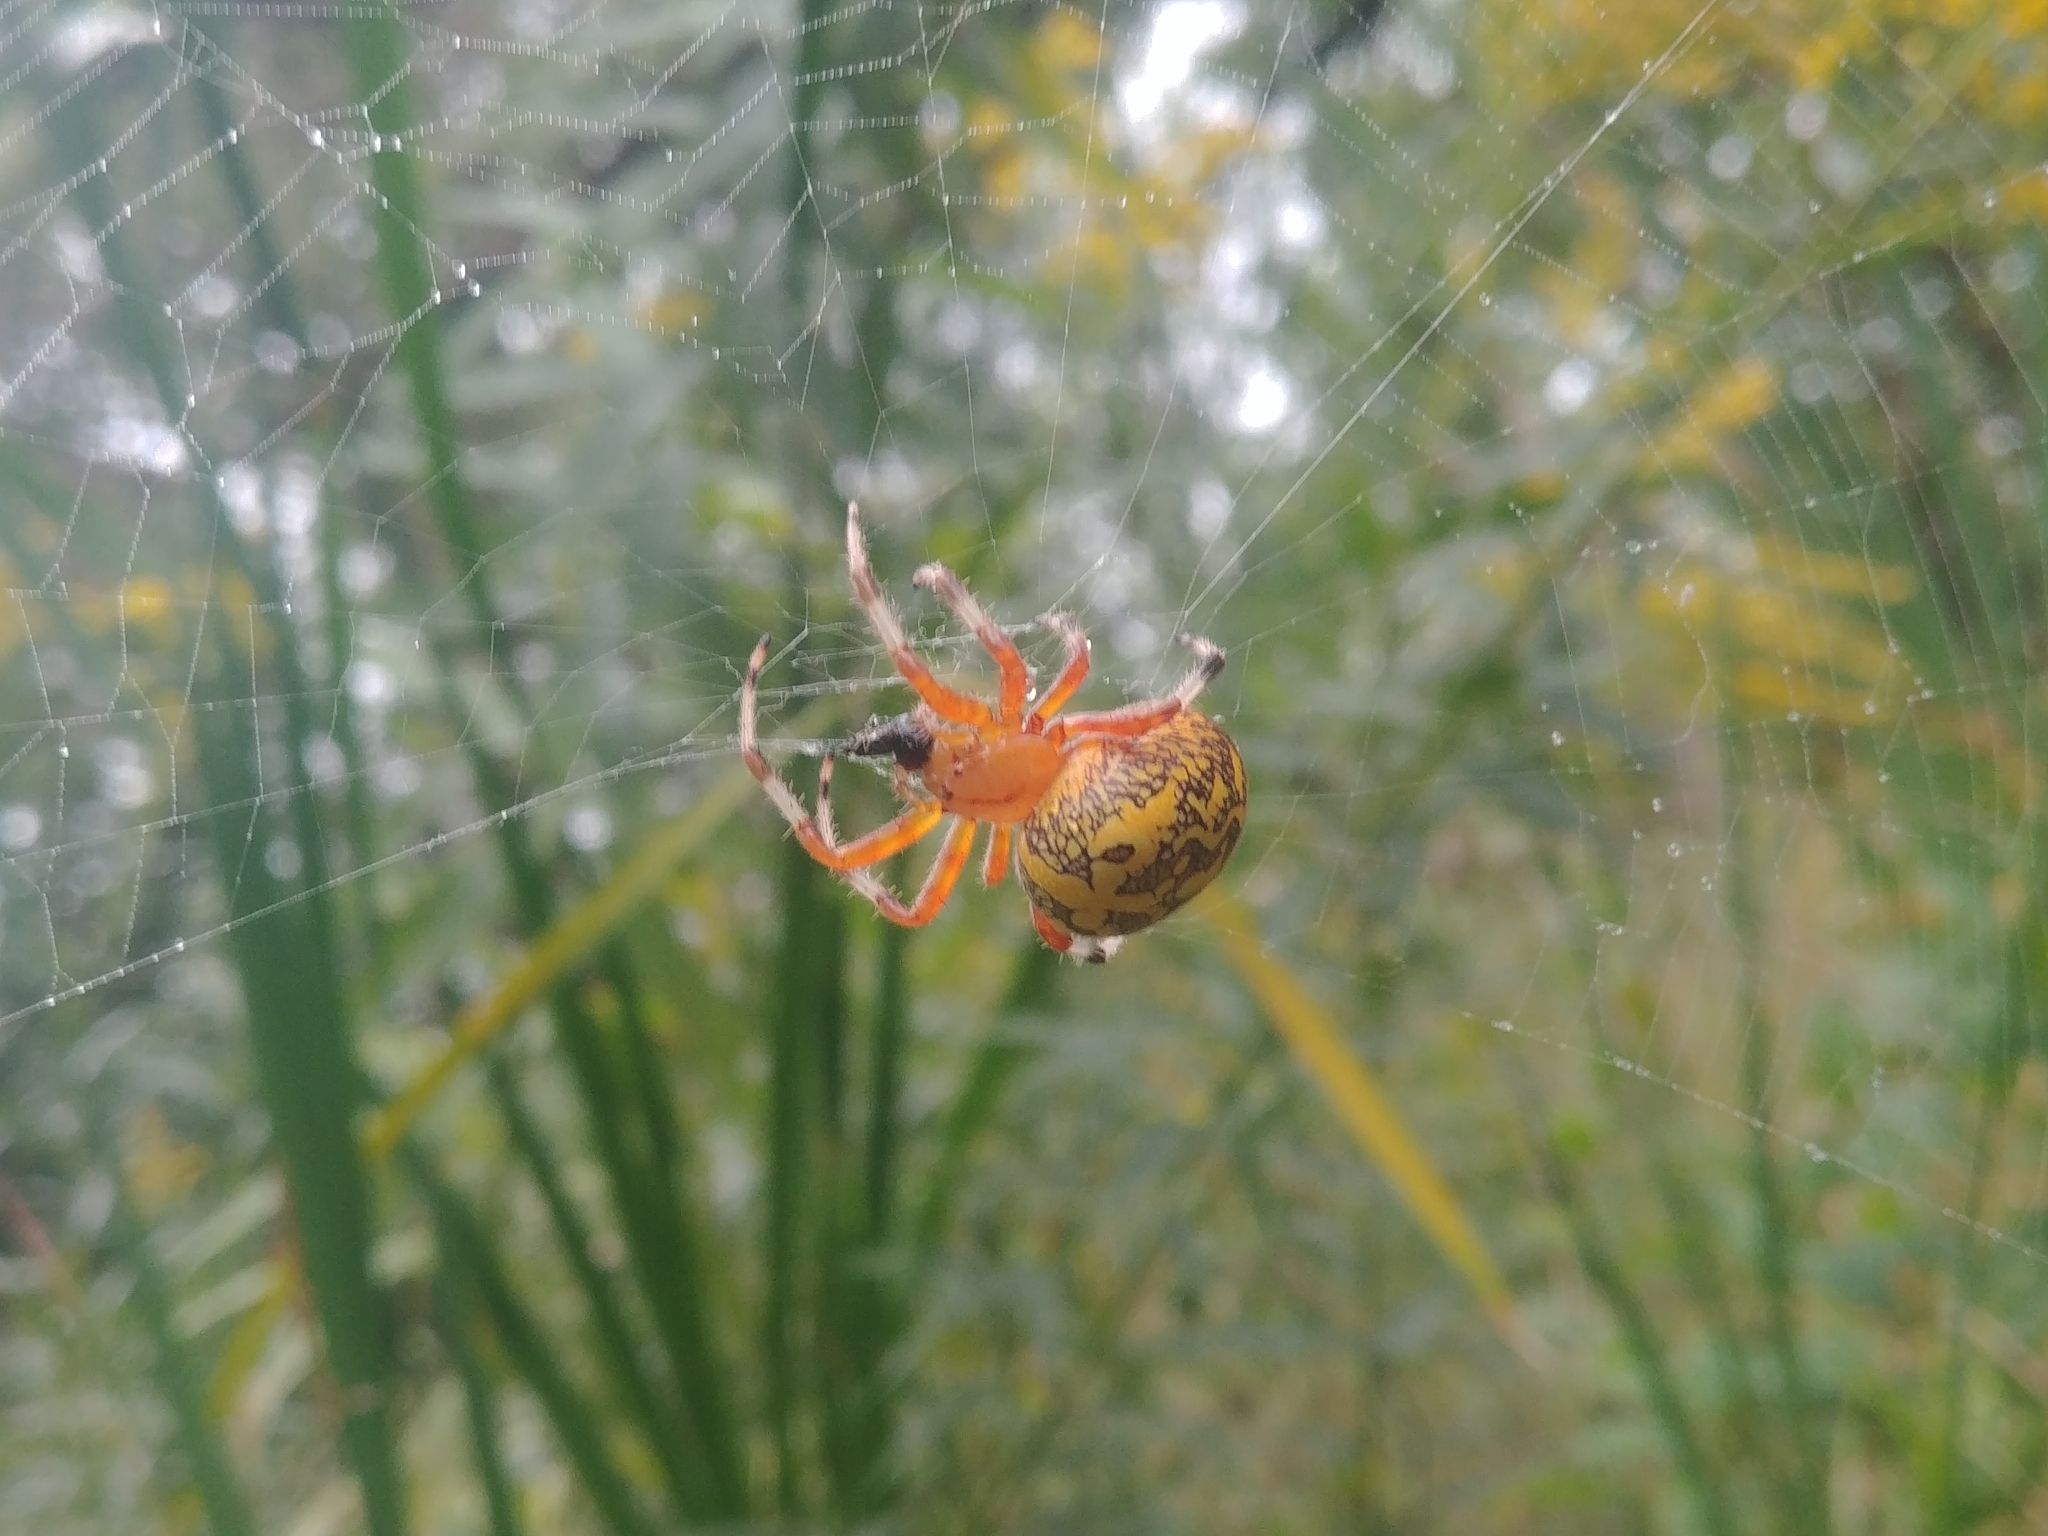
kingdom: Animalia
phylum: Arthropoda
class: Arachnida
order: Araneae
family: Araneidae
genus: Araneus
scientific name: Araneus marmoreus
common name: Marbled orbweaver
